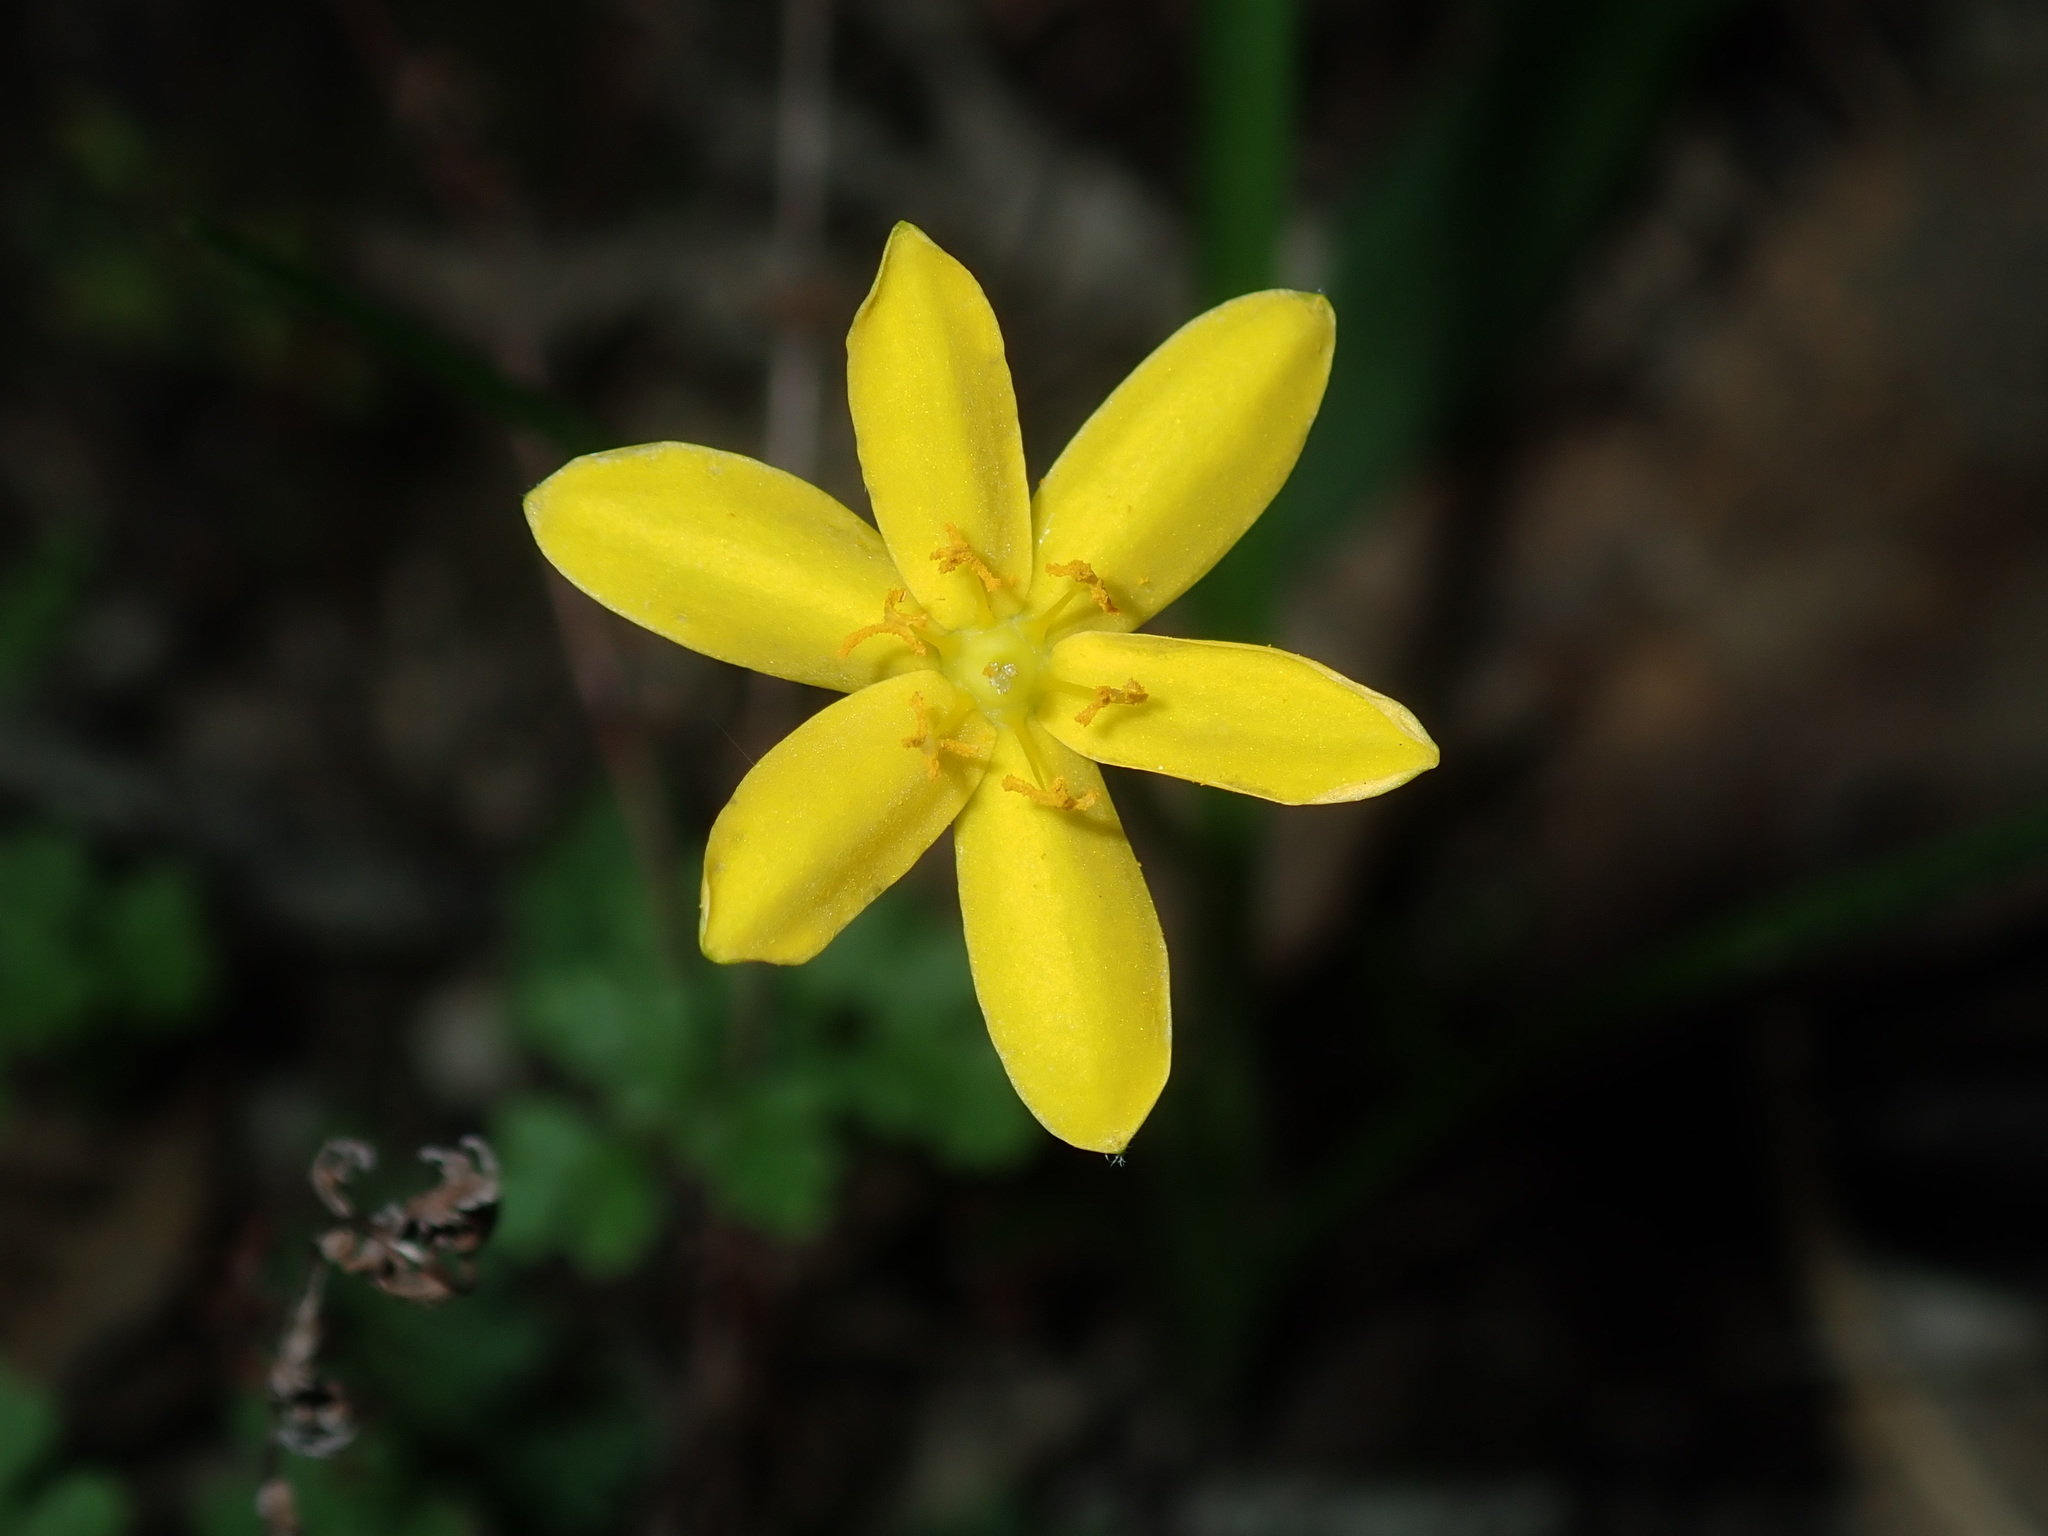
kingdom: Plantae
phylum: Tracheophyta
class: Liliopsida
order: Asparagales
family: Hypoxidaceae
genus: Hypoxis
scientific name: Hypoxis hygrometrica
